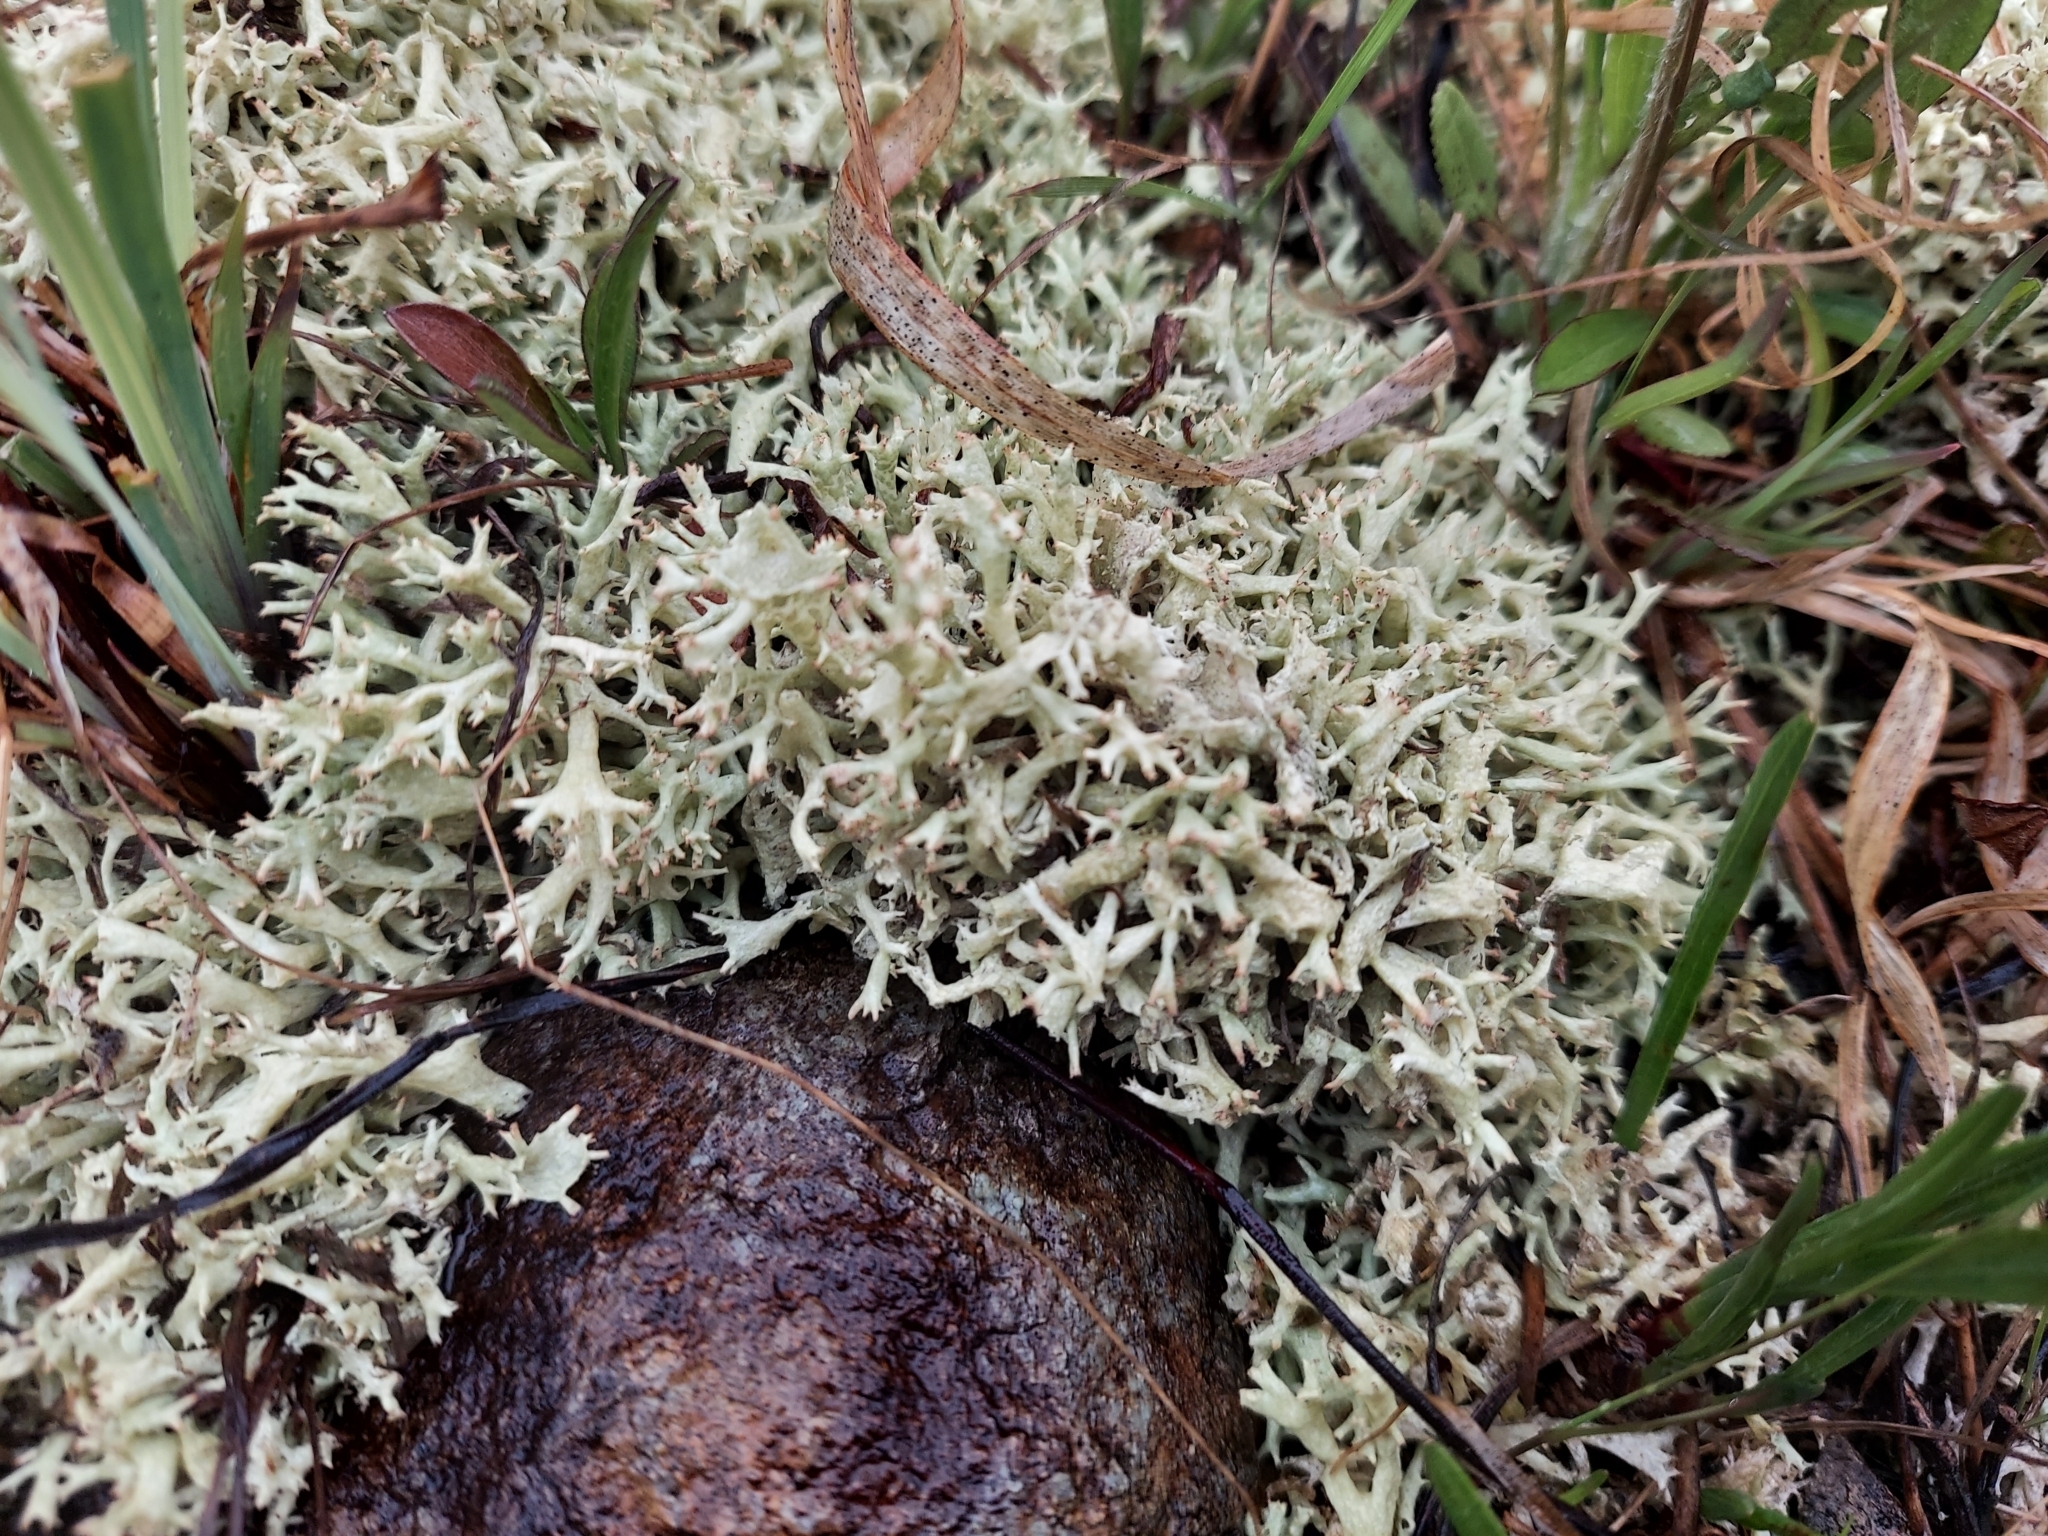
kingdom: Fungi
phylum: Ascomycota
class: Lecanoromycetes
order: Lecanorales
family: Cladoniaceae
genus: Cladonia
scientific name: Cladonia uncialis
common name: Thorn lichen
